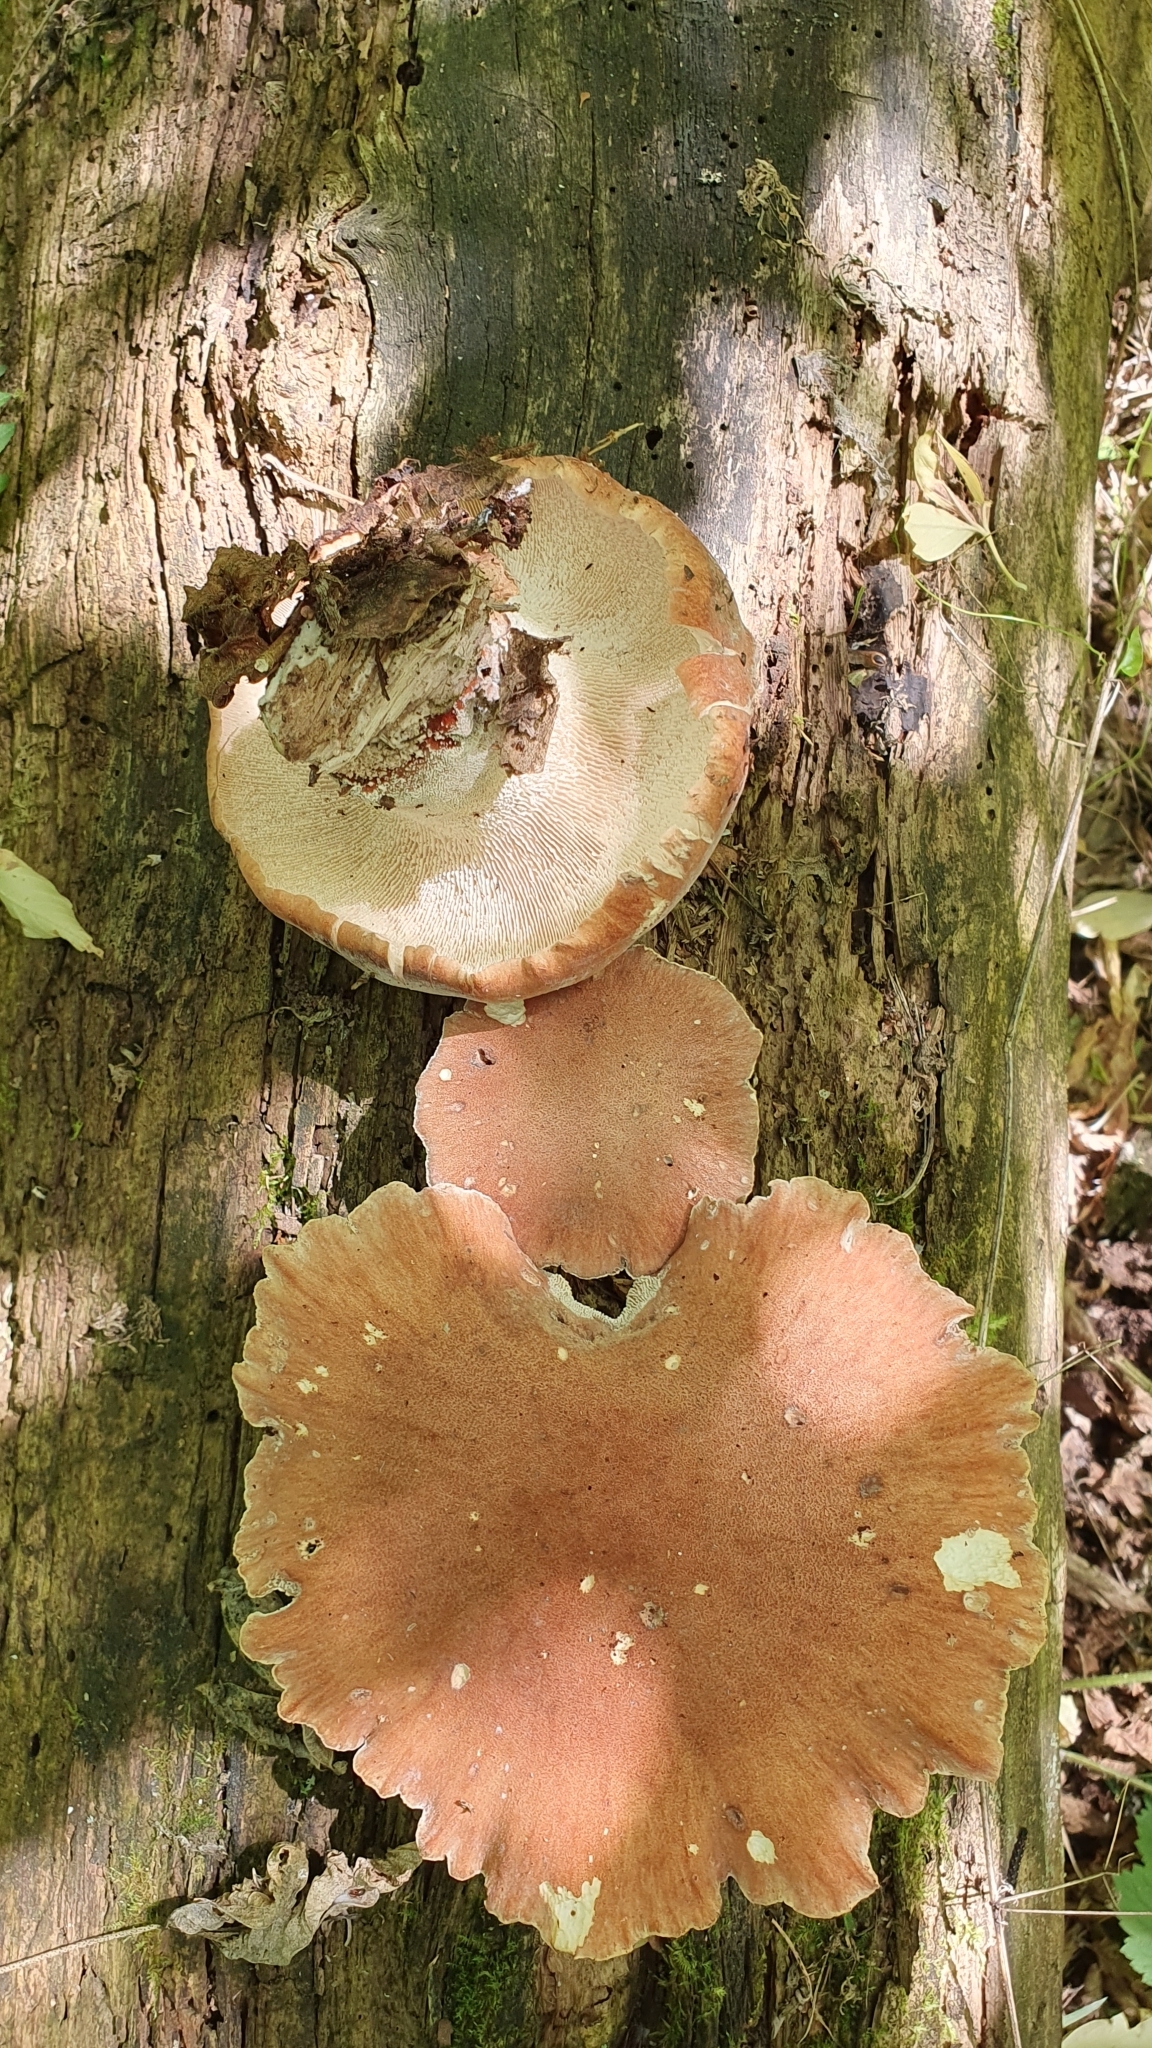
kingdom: Fungi
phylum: Basidiomycota
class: Agaricomycetes
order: Gloeophyllales
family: Gloeophyllaceae
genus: Neolentinus
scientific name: Neolentinus cyathiformis
